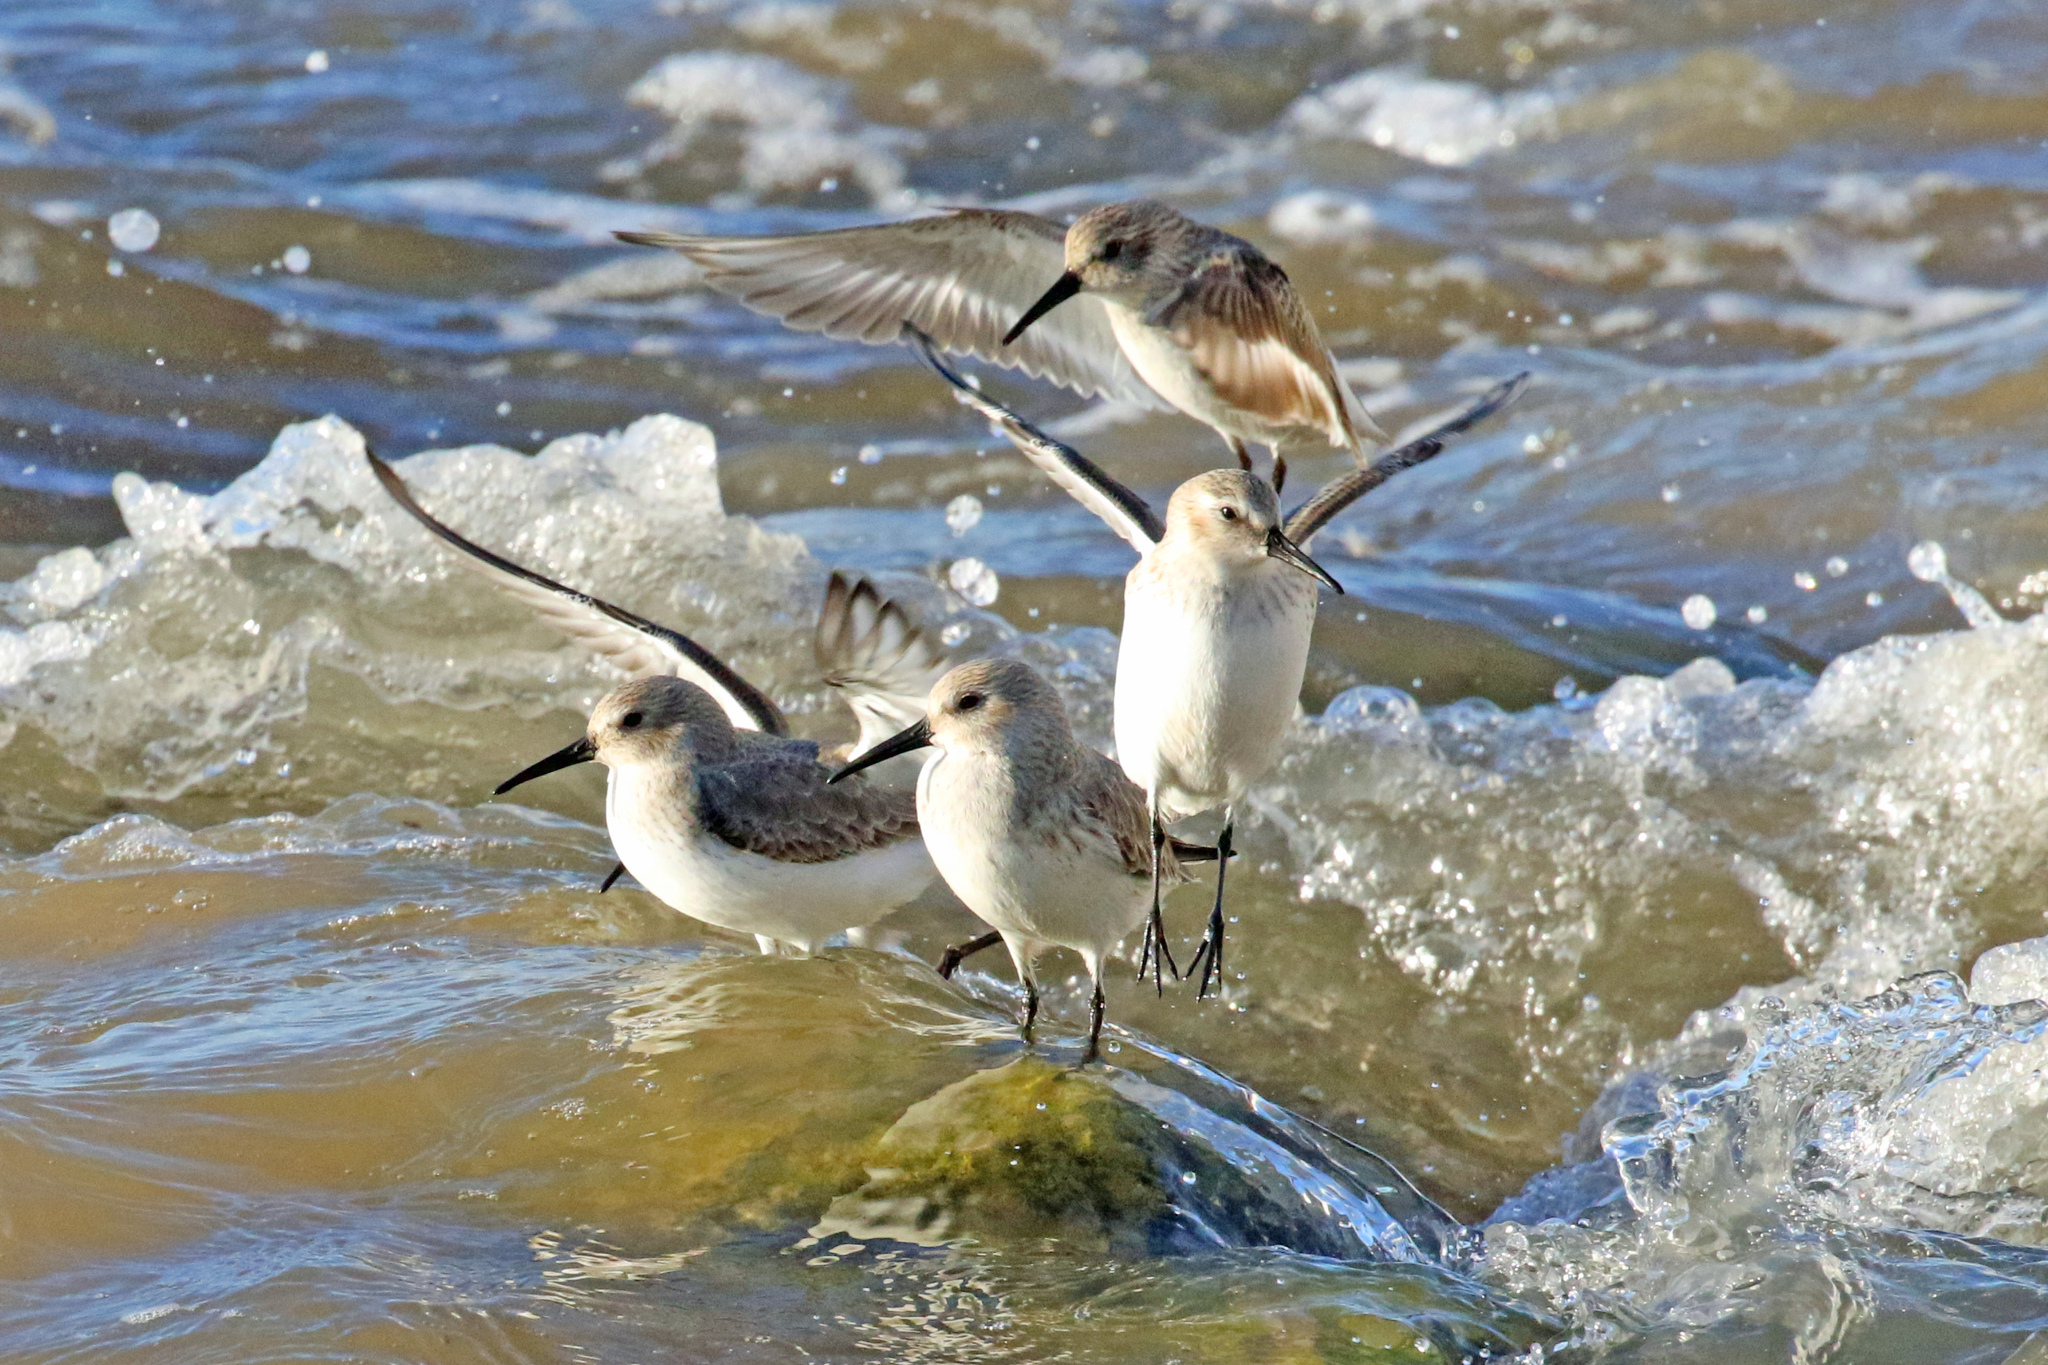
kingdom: Animalia
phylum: Chordata
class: Aves
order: Charadriiformes
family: Scolopacidae
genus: Calidris
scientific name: Calidris alpina
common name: Dunlin
